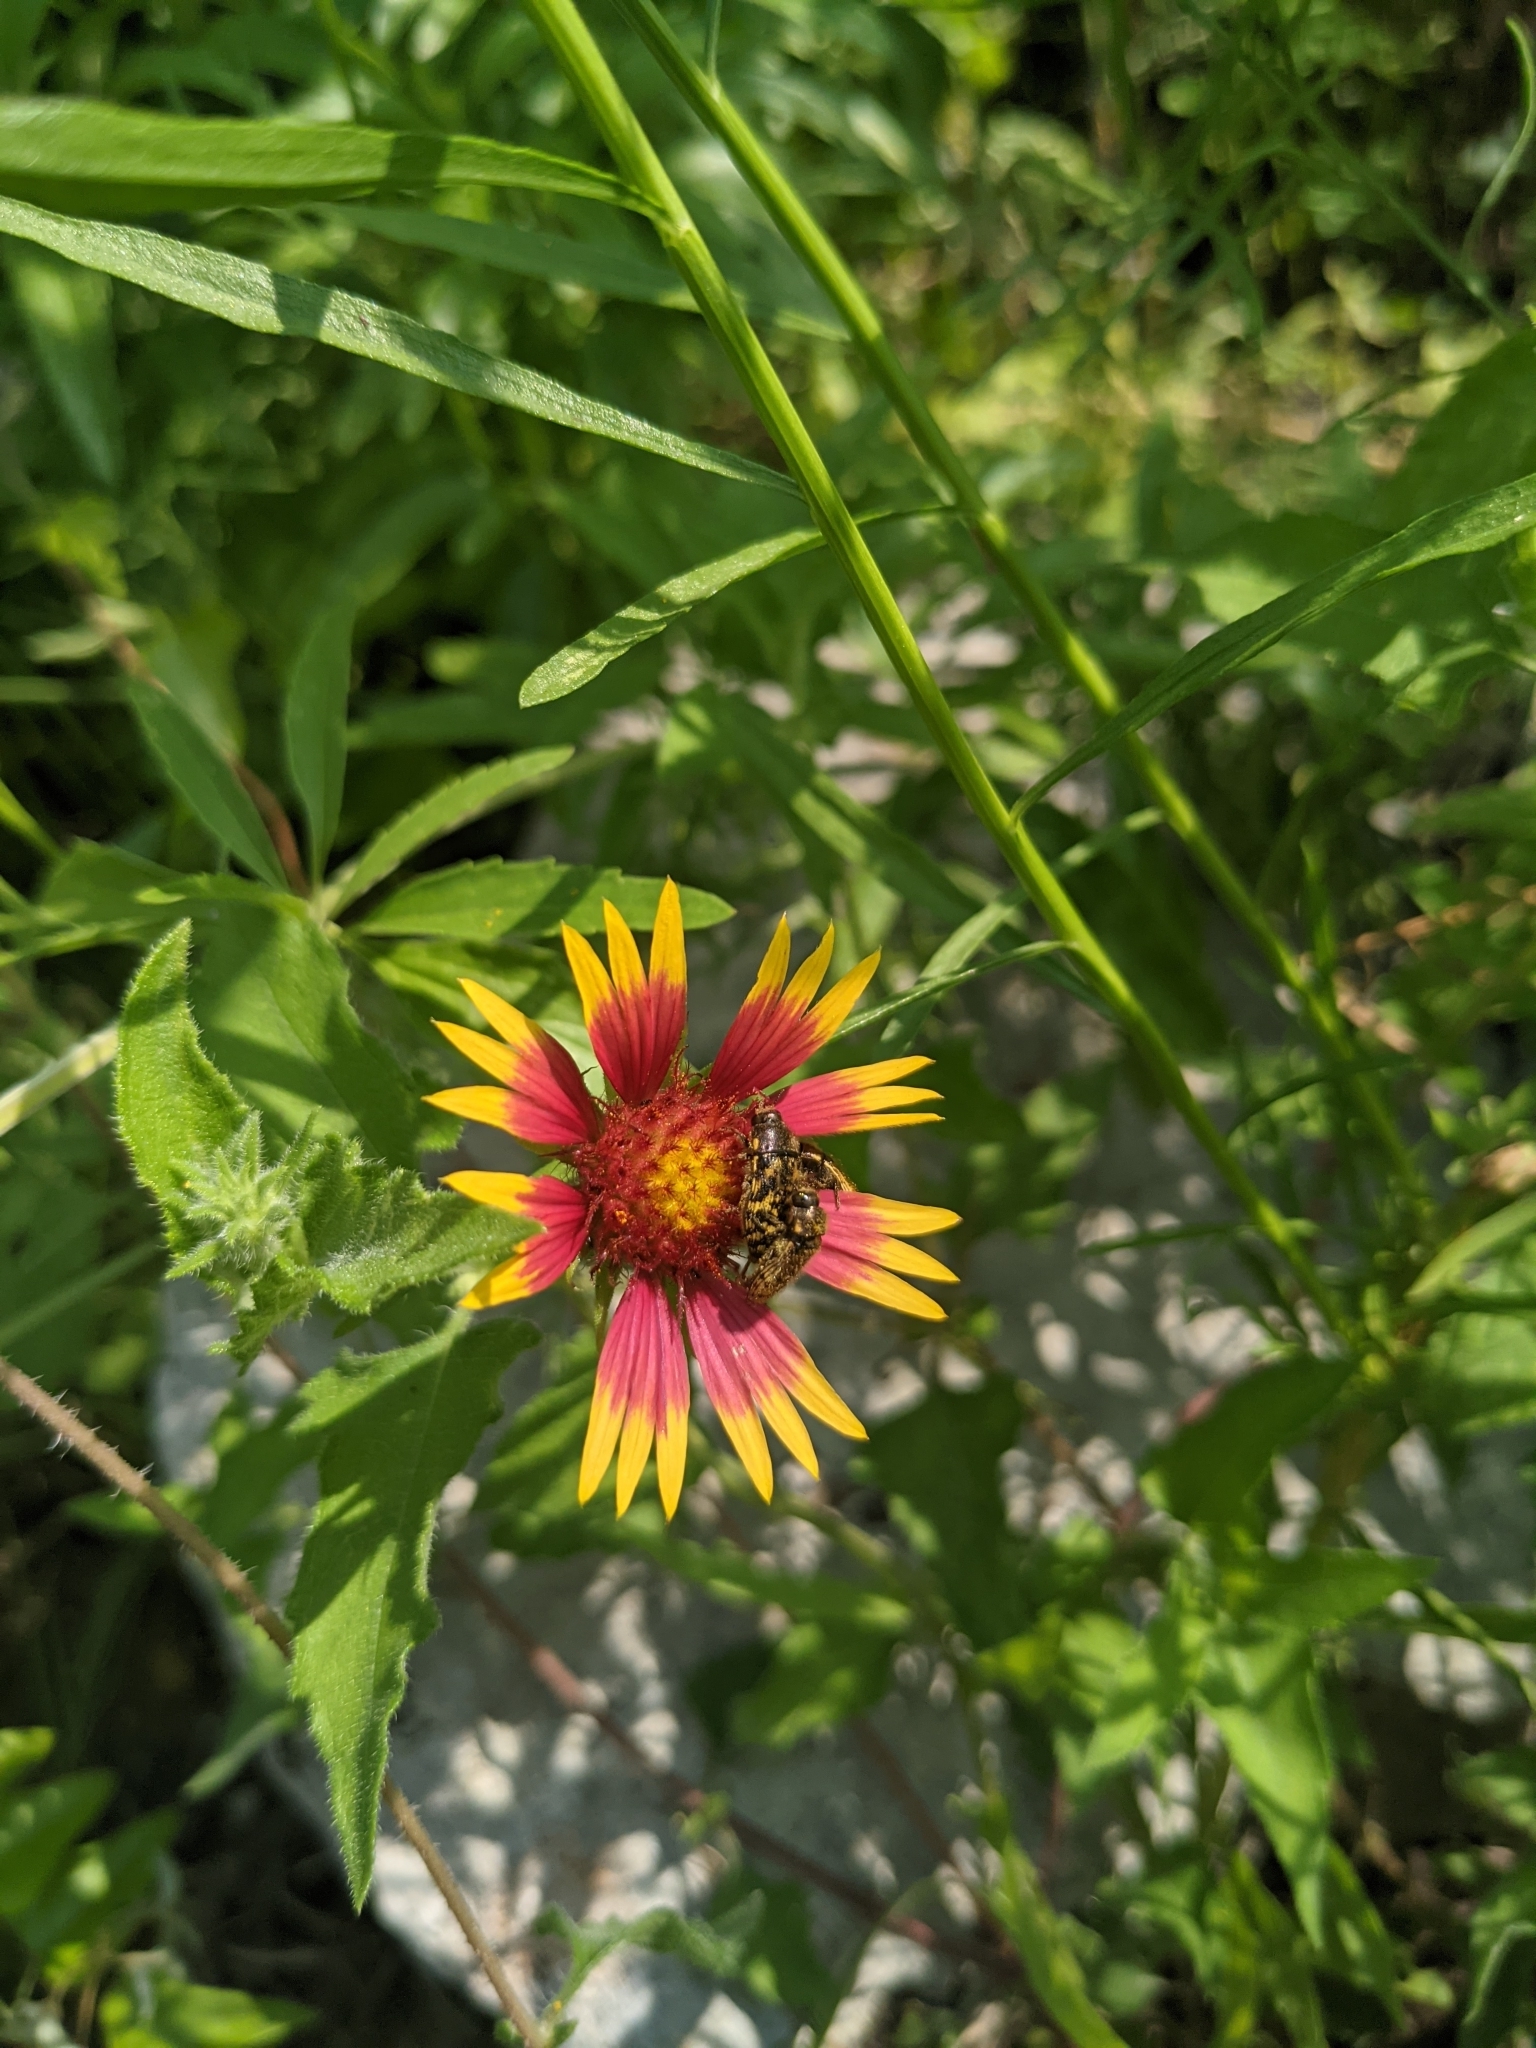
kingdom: Animalia
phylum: Arthropoda
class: Insecta
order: Coleoptera
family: Buprestidae
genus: Acmaeodera
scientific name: Acmaeodera mixta
